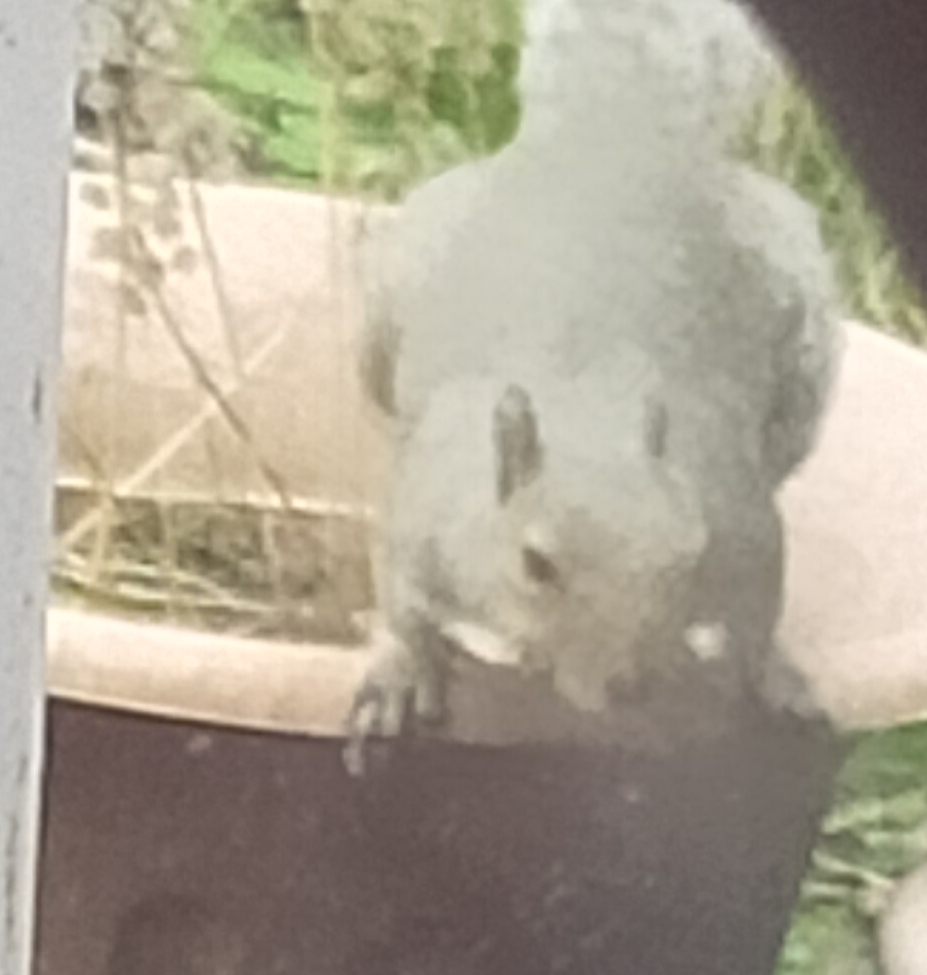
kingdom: Animalia
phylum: Chordata
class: Mammalia
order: Rodentia
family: Sciuridae
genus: Sciurus
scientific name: Sciurus carolinensis
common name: Eastern gray squirrel
